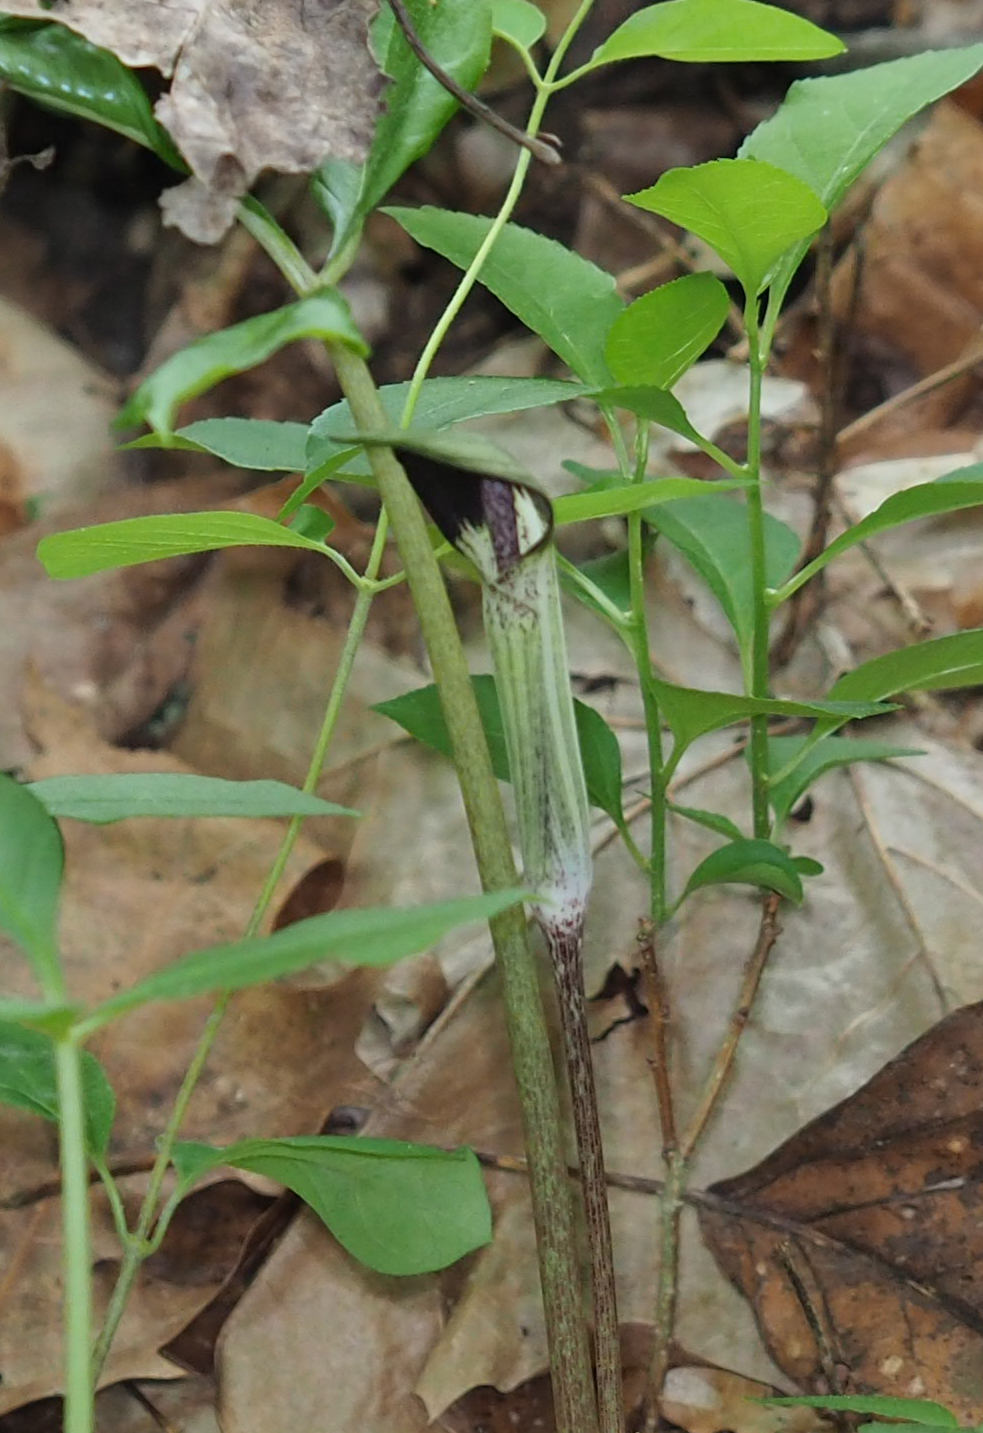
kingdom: Plantae
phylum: Tracheophyta
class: Liliopsida
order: Alismatales
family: Araceae
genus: Arisaema
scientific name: Arisaema triphyllum
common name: Jack-in-the-pulpit
